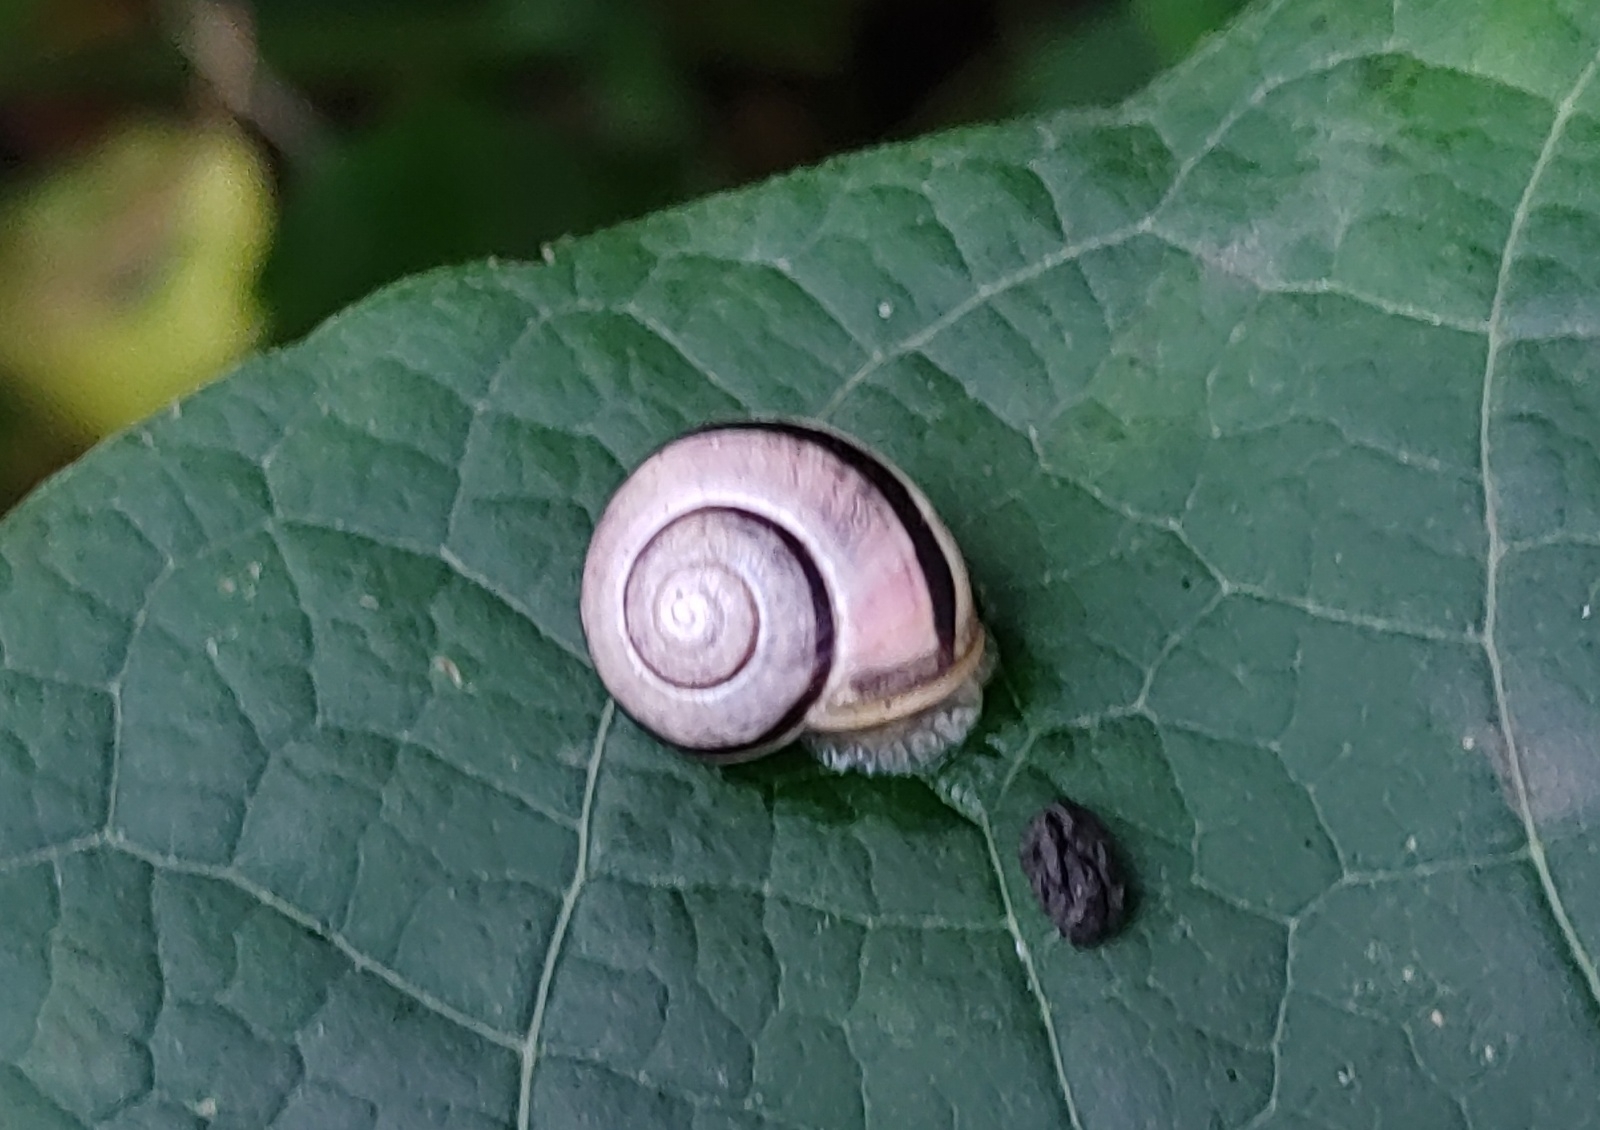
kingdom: Animalia
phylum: Mollusca
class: Gastropoda
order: Stylommatophora
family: Helicidae
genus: Cepaea
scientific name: Cepaea nemoralis
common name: Grovesnail
